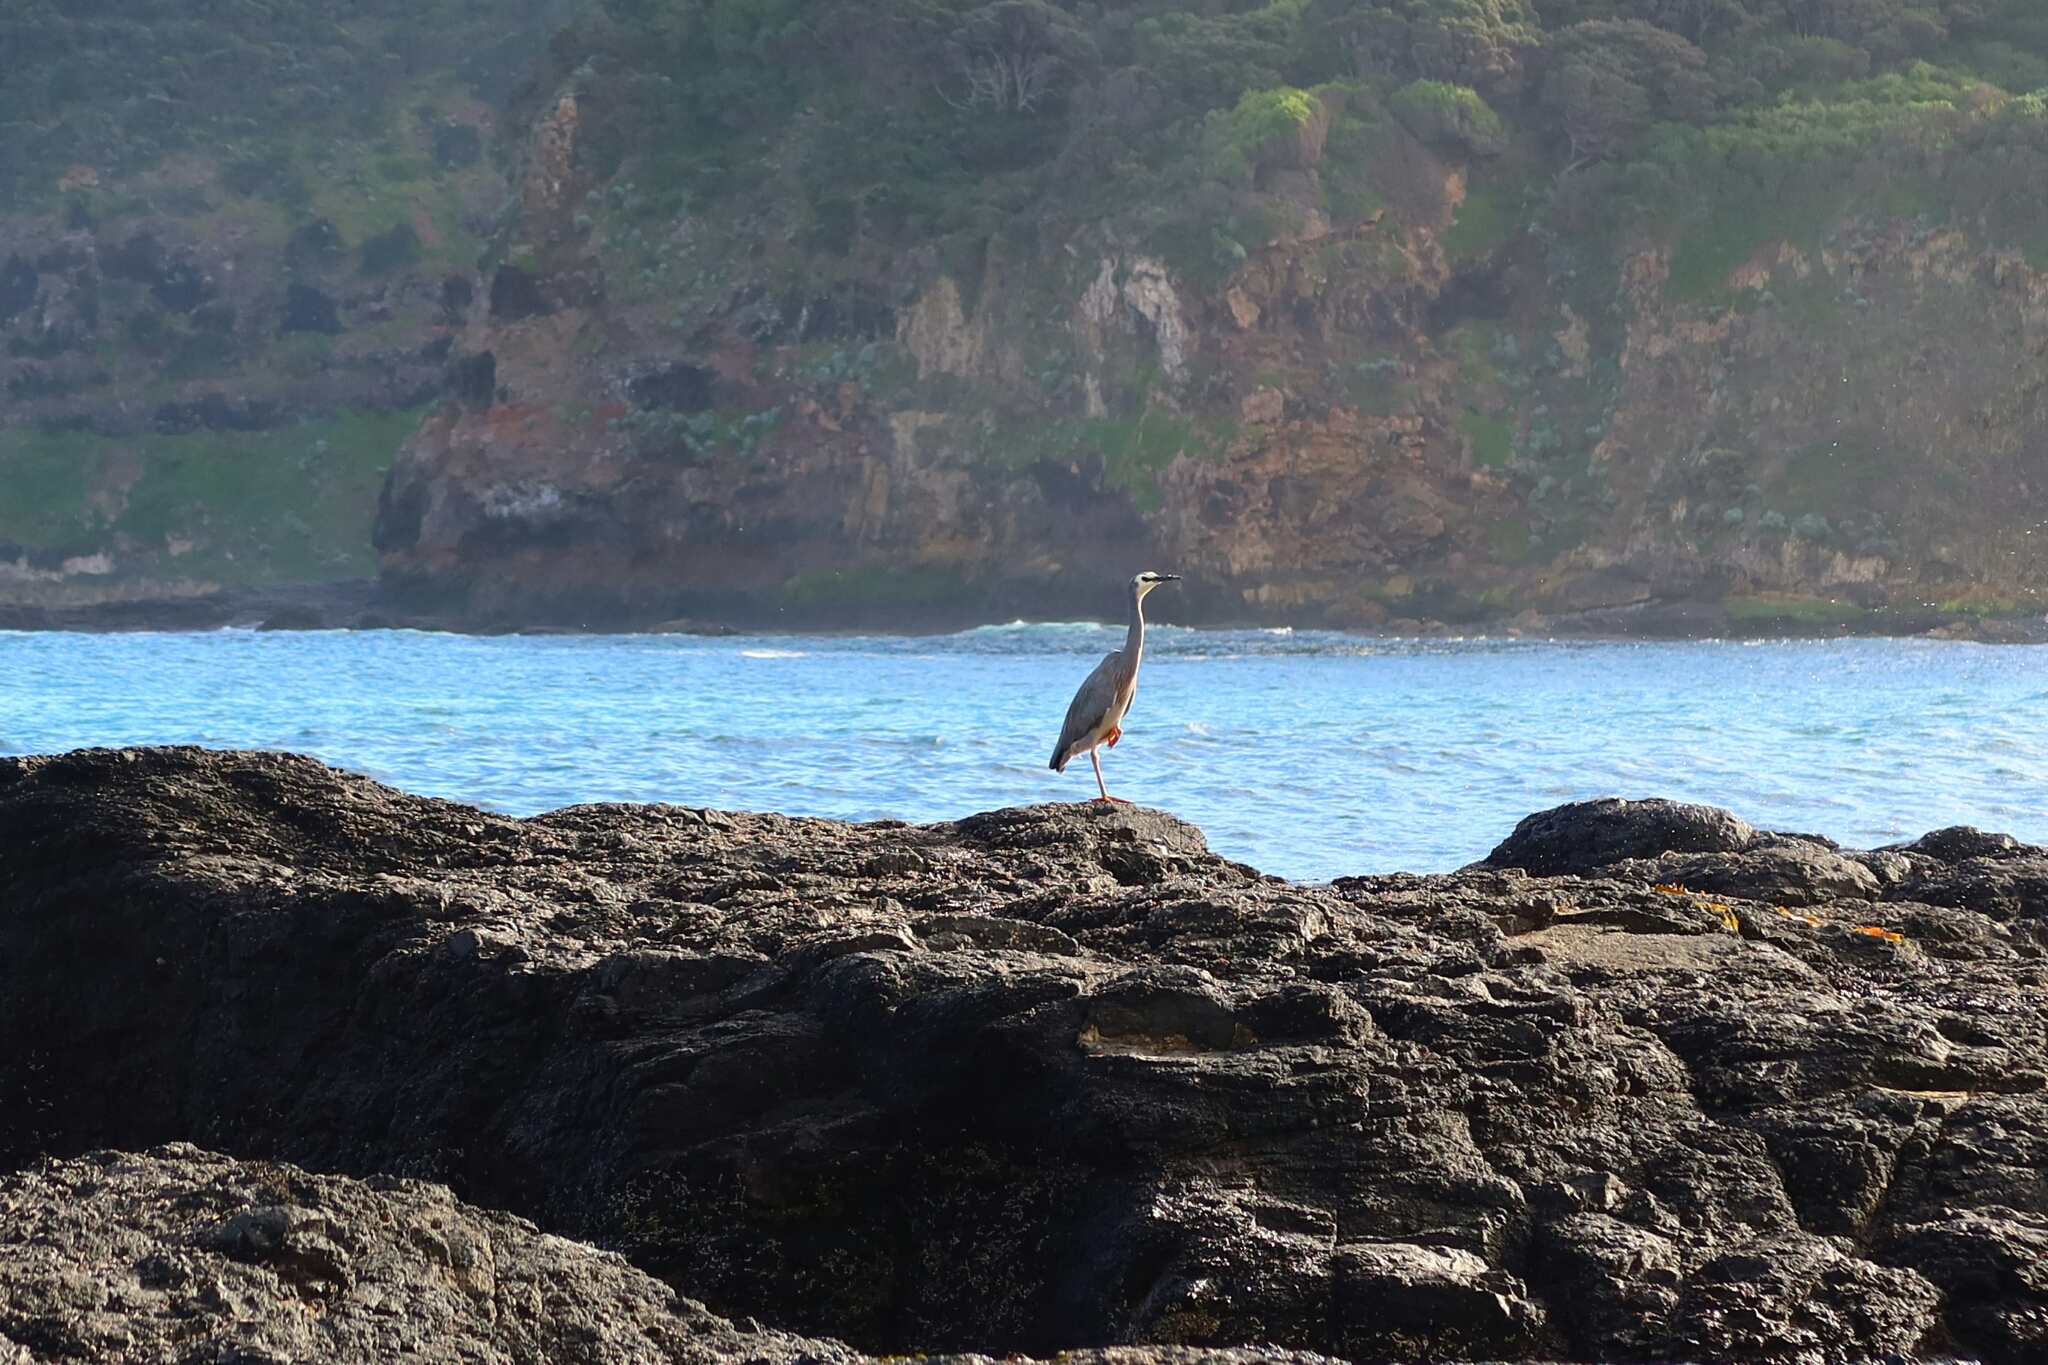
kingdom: Animalia
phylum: Chordata
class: Aves
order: Pelecaniformes
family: Ardeidae
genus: Egretta
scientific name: Egretta novaehollandiae
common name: White-faced heron
